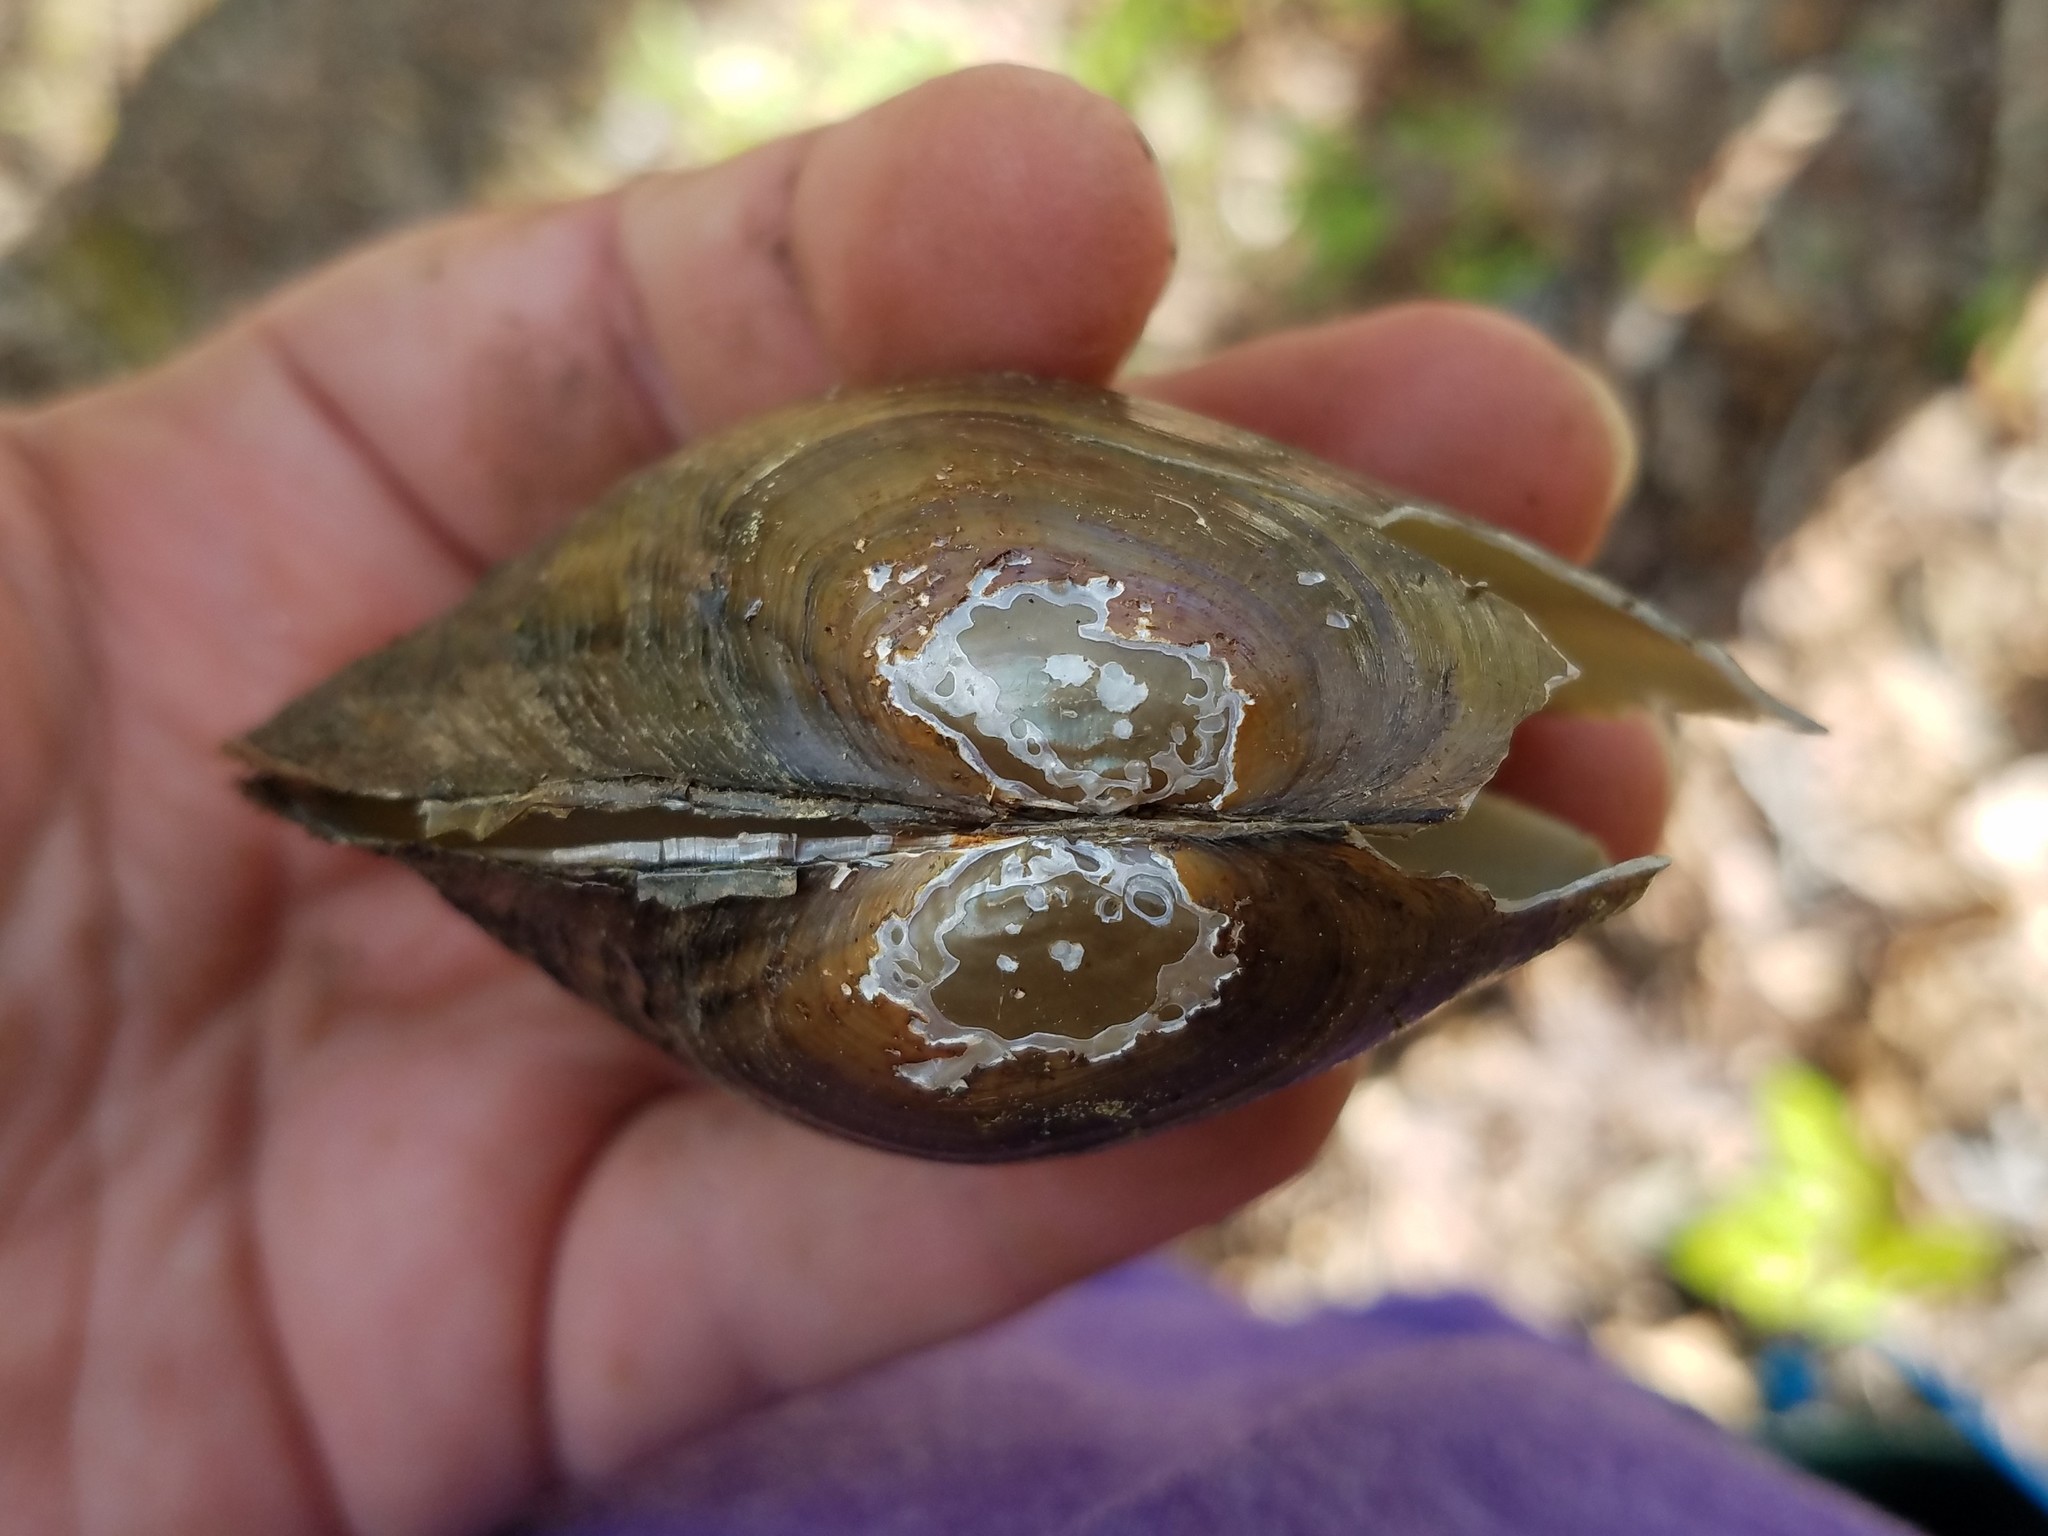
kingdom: Animalia
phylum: Mollusca
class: Bivalvia
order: Unionida
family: Unionidae
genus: Pyganodon
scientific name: Pyganodon gibbosa
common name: Inflated floater
